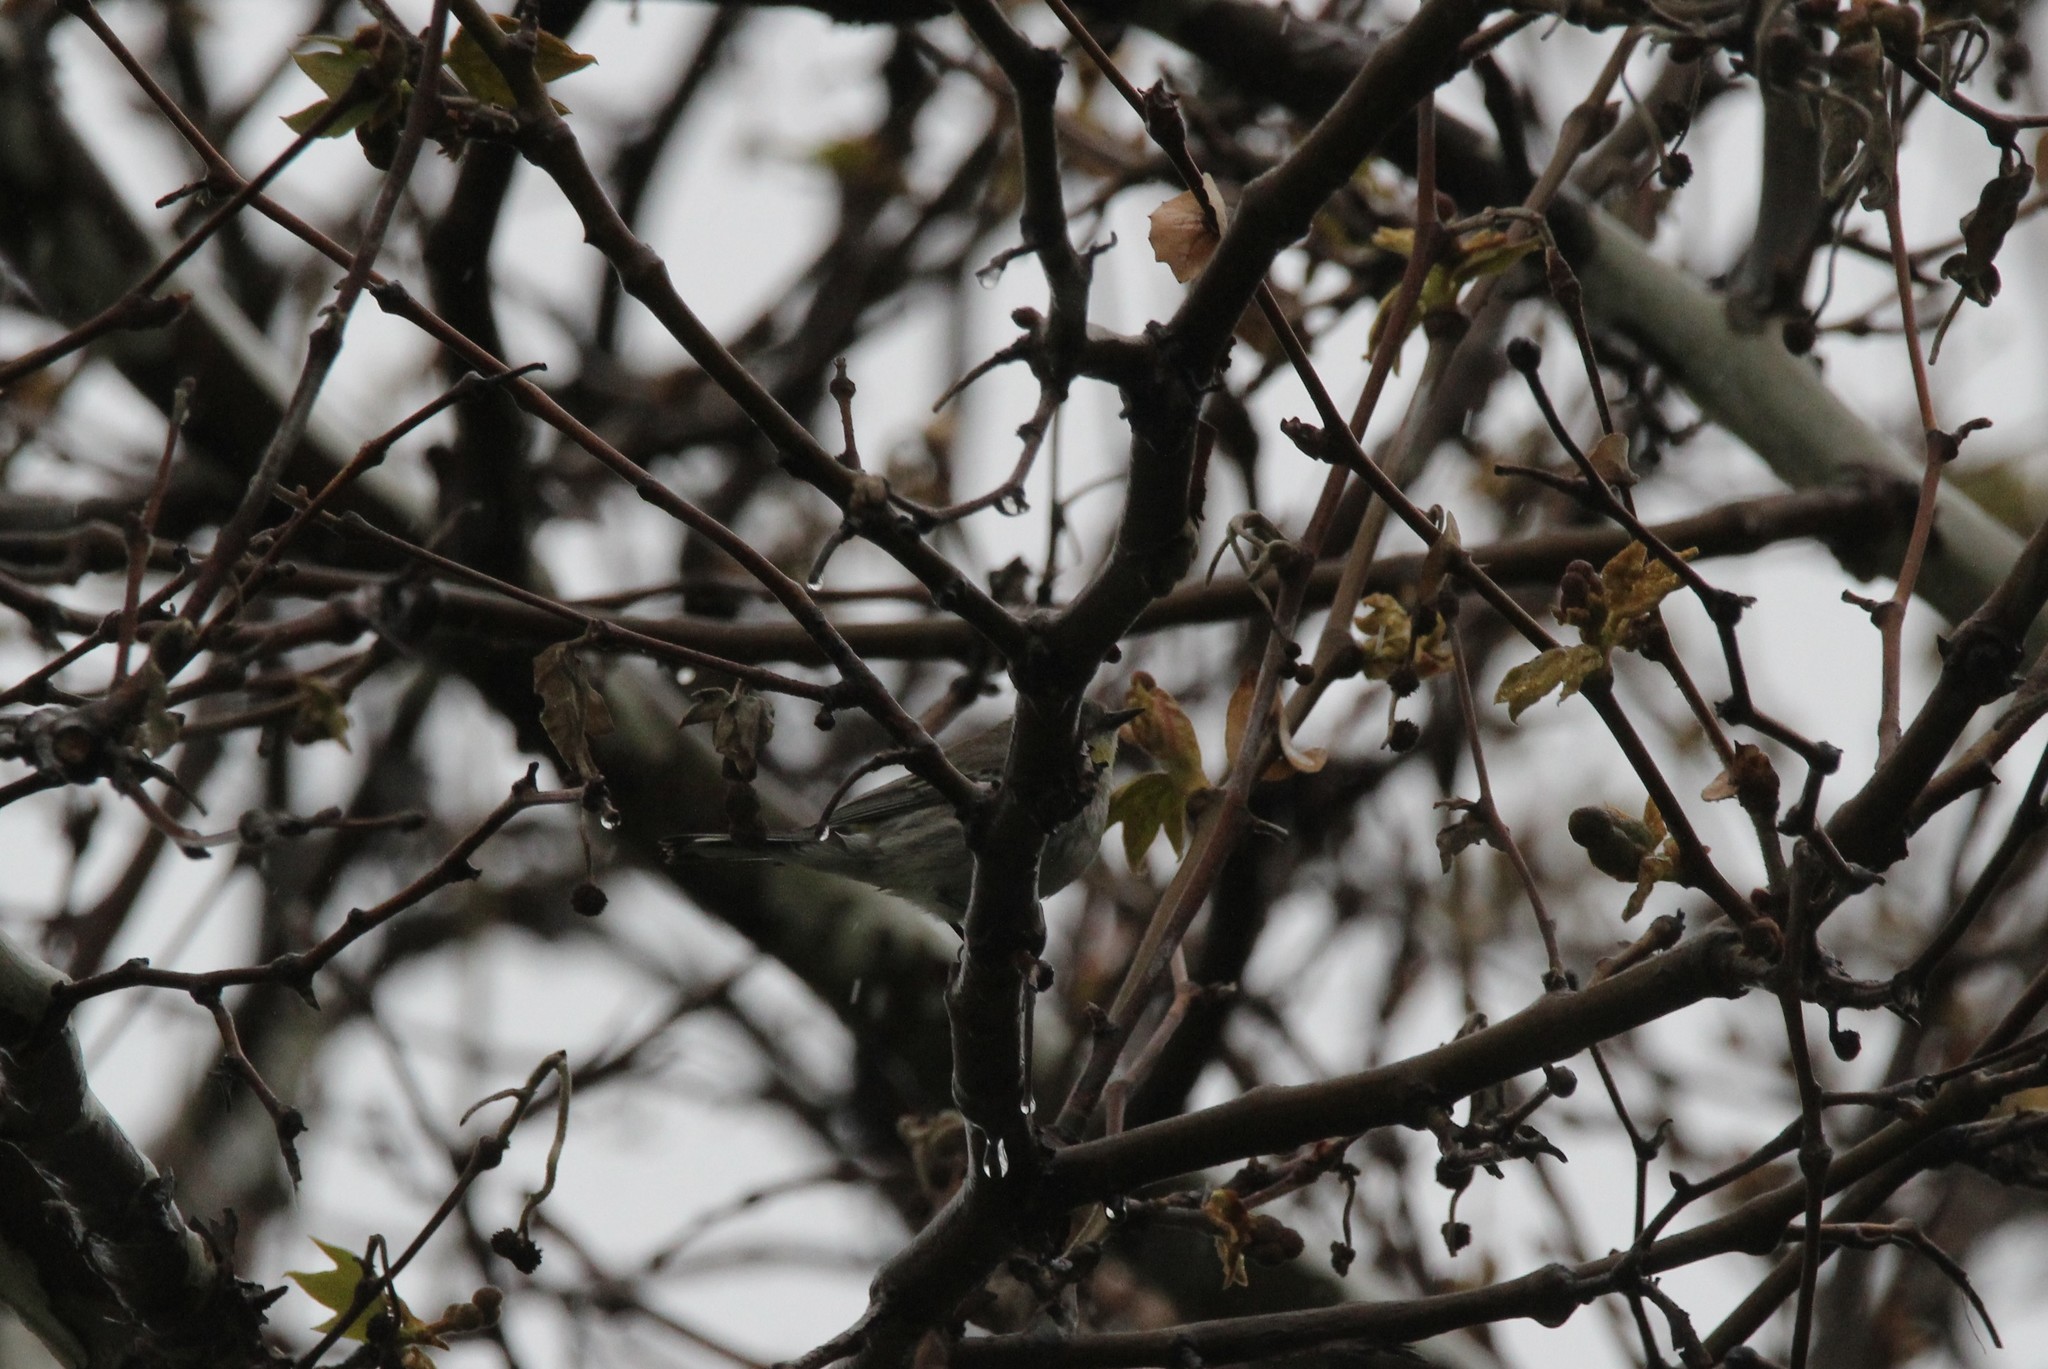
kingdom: Animalia
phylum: Chordata
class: Aves
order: Passeriformes
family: Parulidae
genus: Setophaga
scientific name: Setophaga coronata
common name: Myrtle warbler
